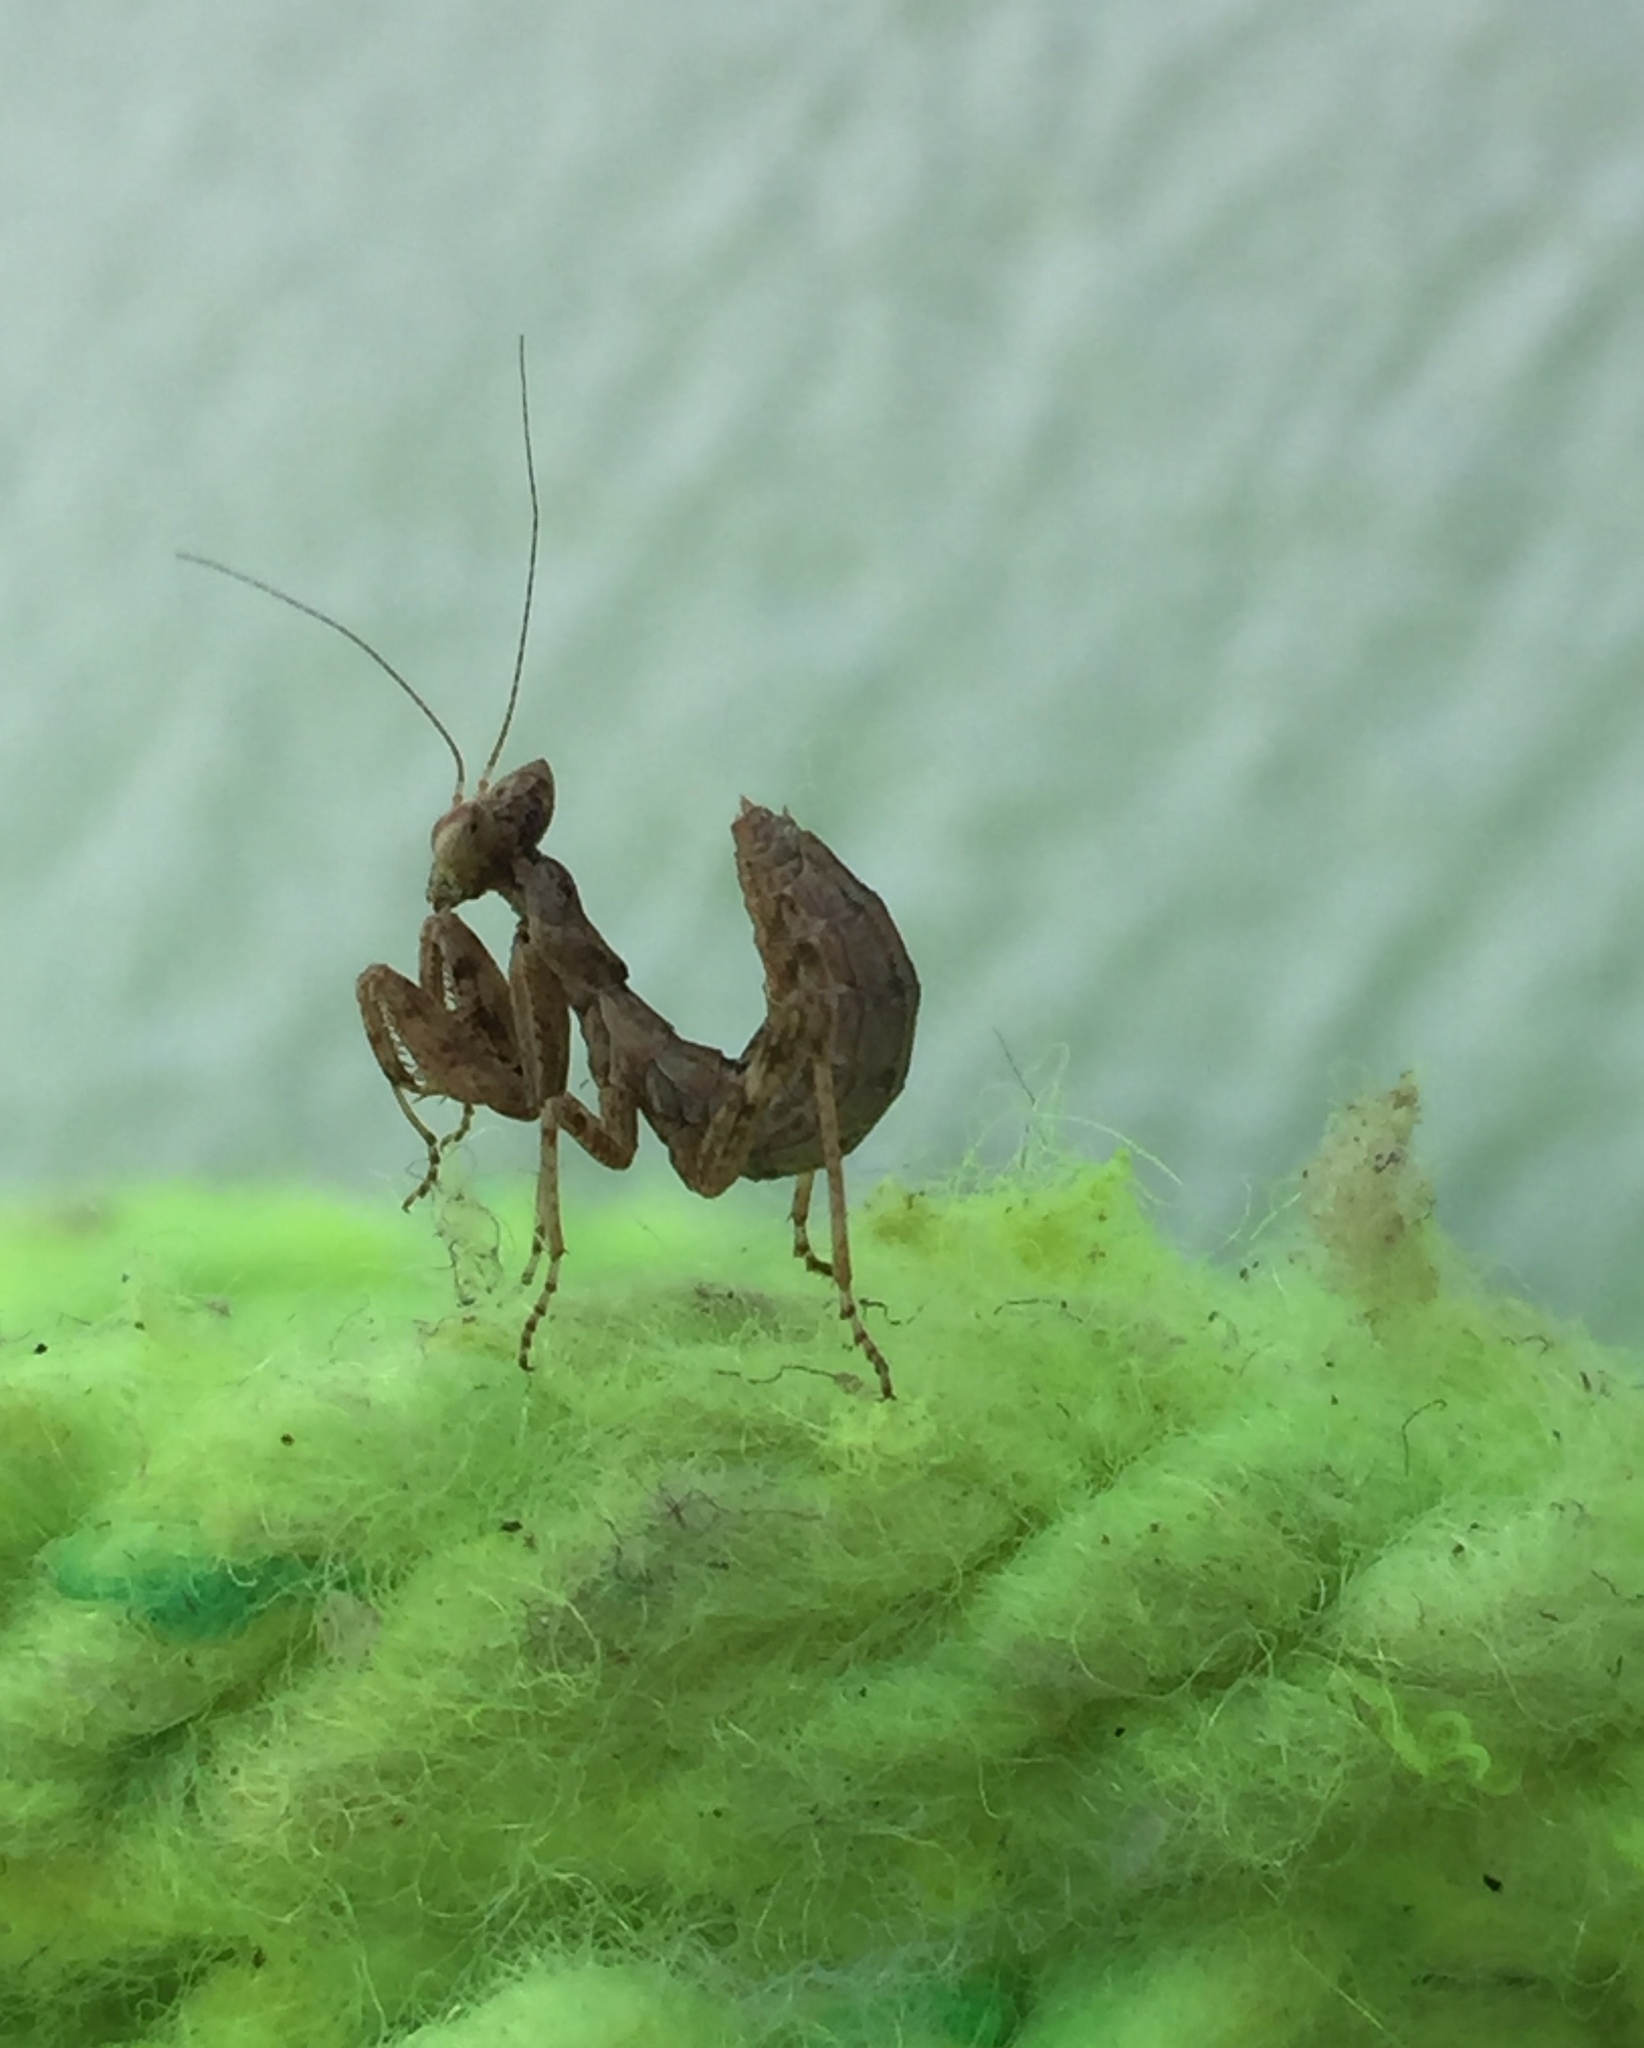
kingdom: Animalia
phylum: Arthropoda
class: Insecta
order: Mantodea
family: Amelidae
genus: Ameles
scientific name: Ameles spallanzania
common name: European dwarf mantis
